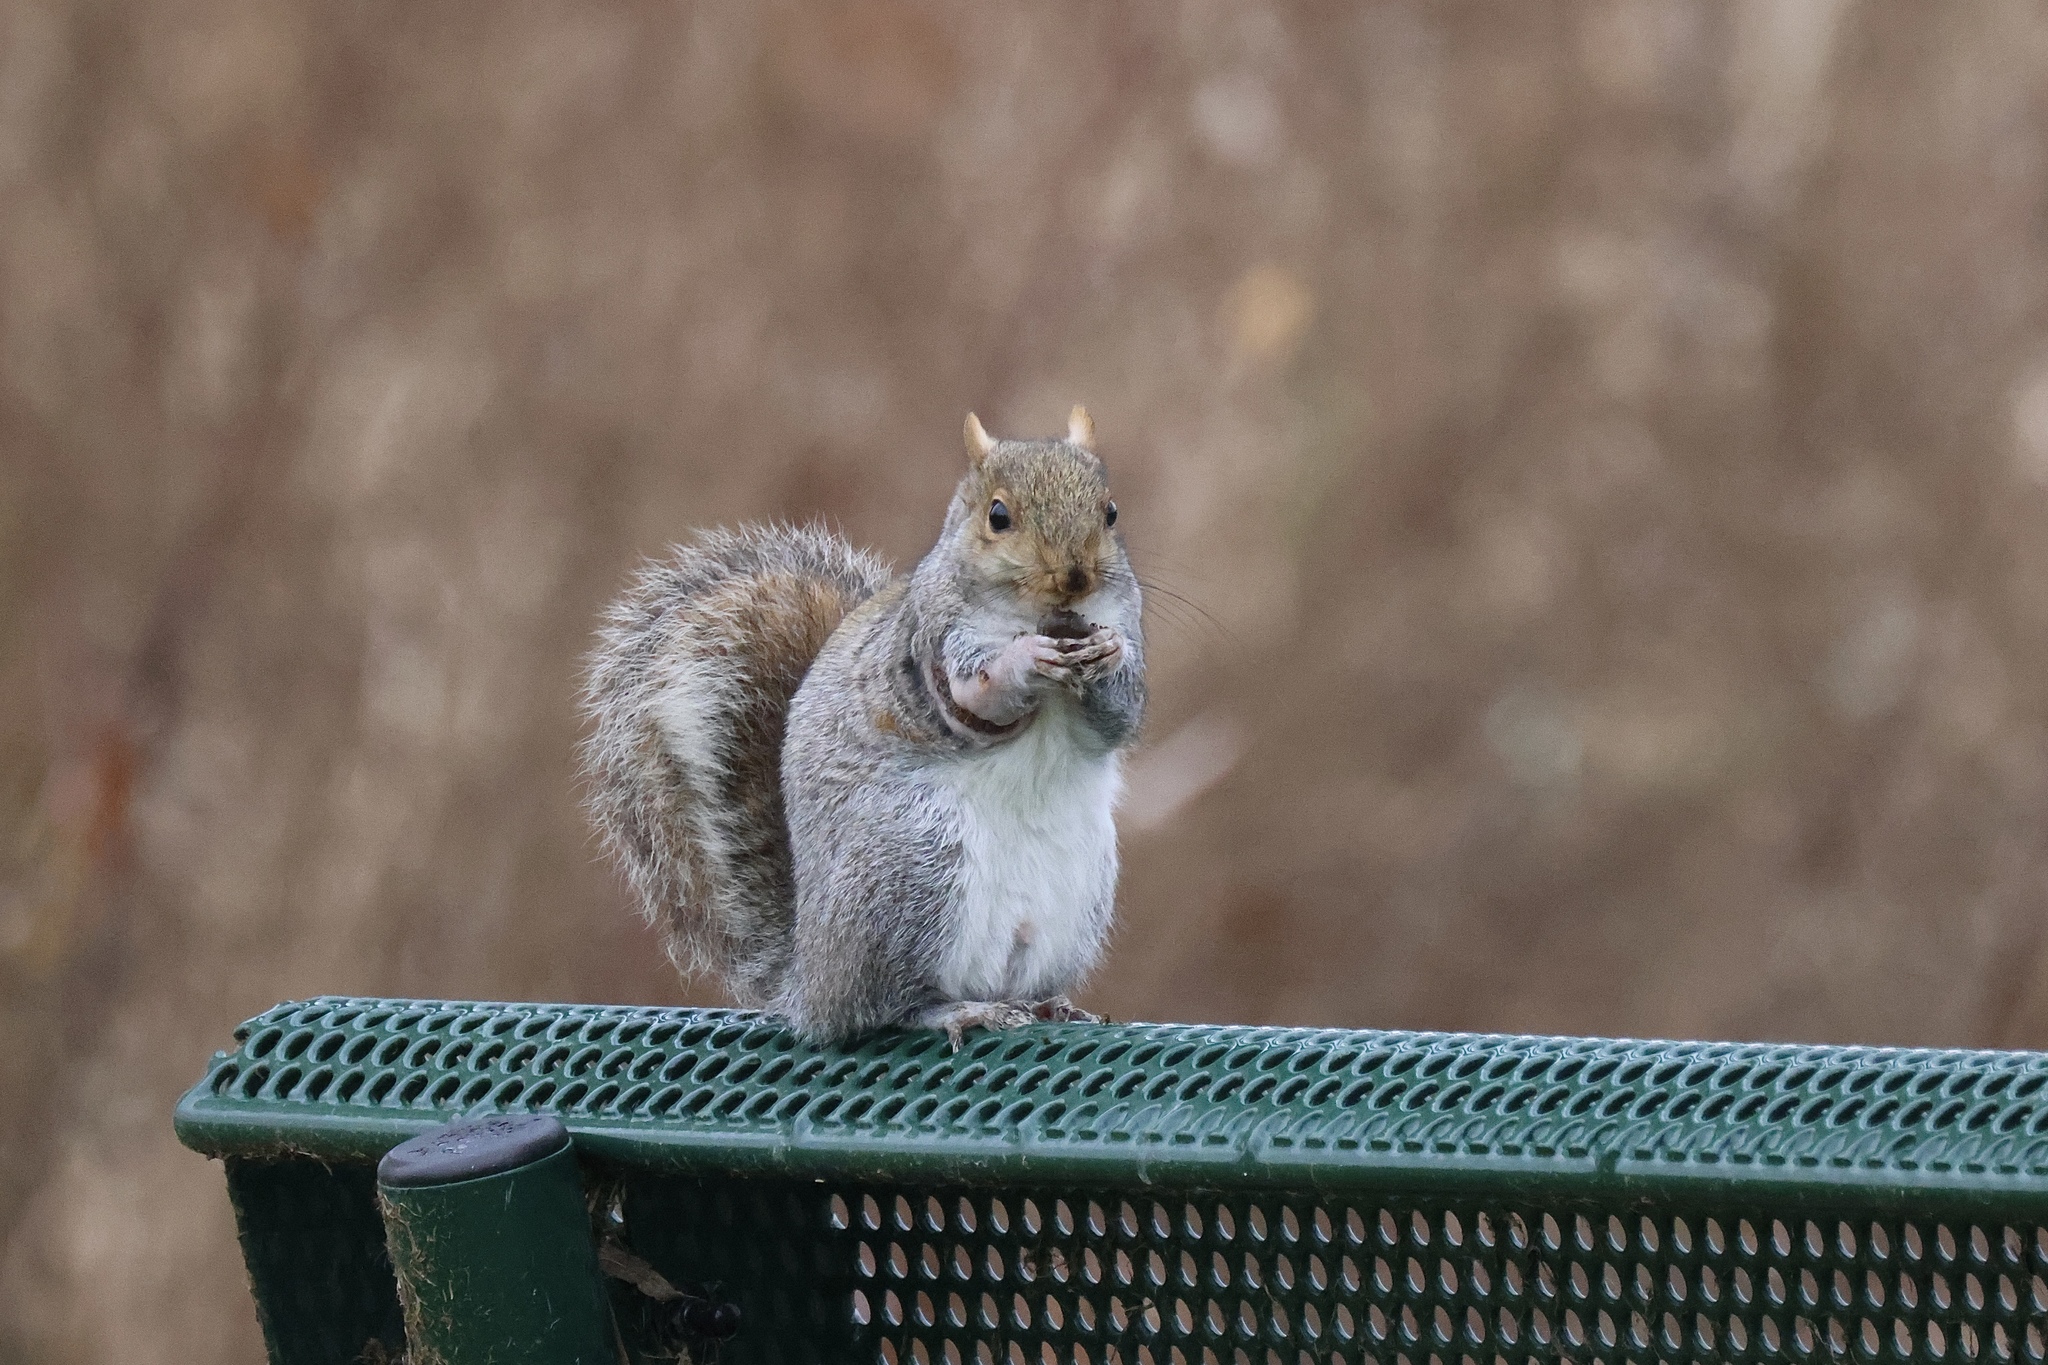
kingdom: Animalia
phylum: Chordata
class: Mammalia
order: Rodentia
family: Sciuridae
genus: Sciurus
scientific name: Sciurus carolinensis
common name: Eastern gray squirrel
